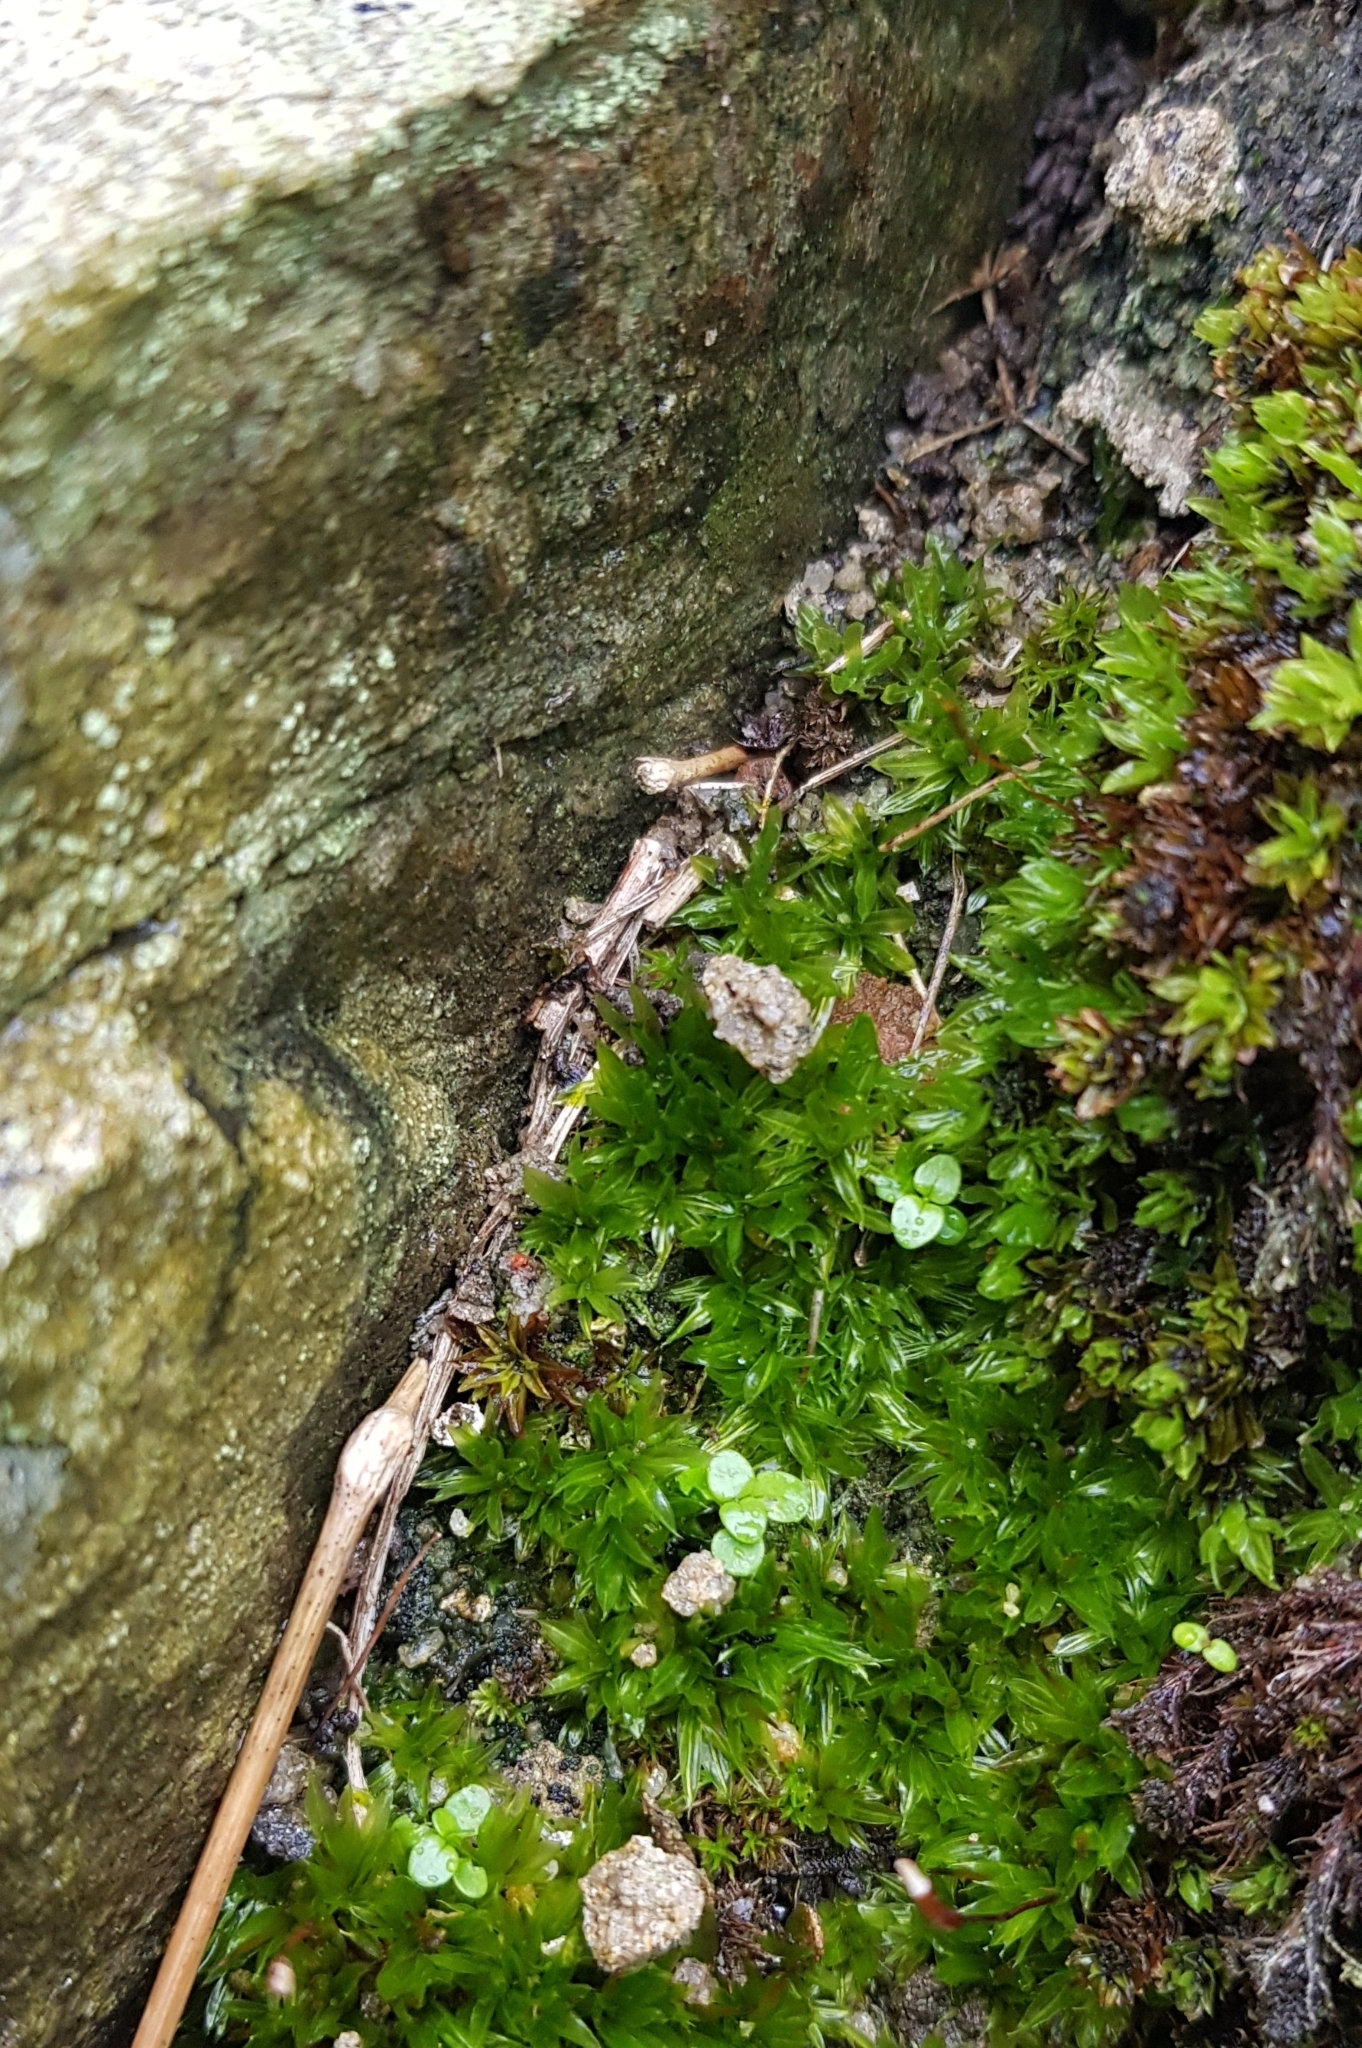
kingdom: Plantae
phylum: Bryophyta
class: Bryopsida
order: Pottiales
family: Pottiaceae
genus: Tortula
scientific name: Tortula subulata
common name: Upright screw-moss
